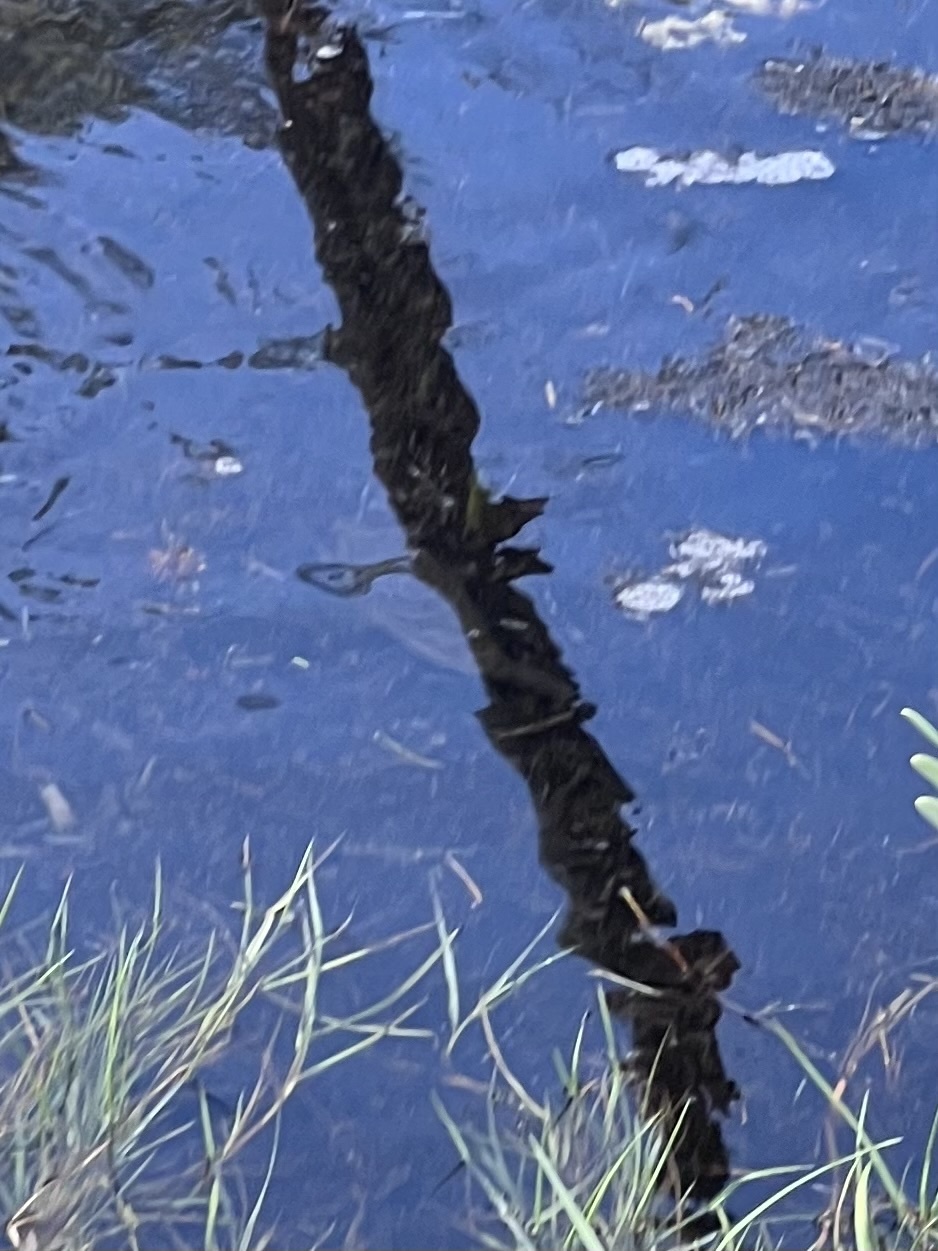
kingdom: Animalia
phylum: Chordata
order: Tetraodontiformes
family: Tetraodontidae
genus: Sphoeroides
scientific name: Sphoeroides testudineus
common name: Checkered puffer
